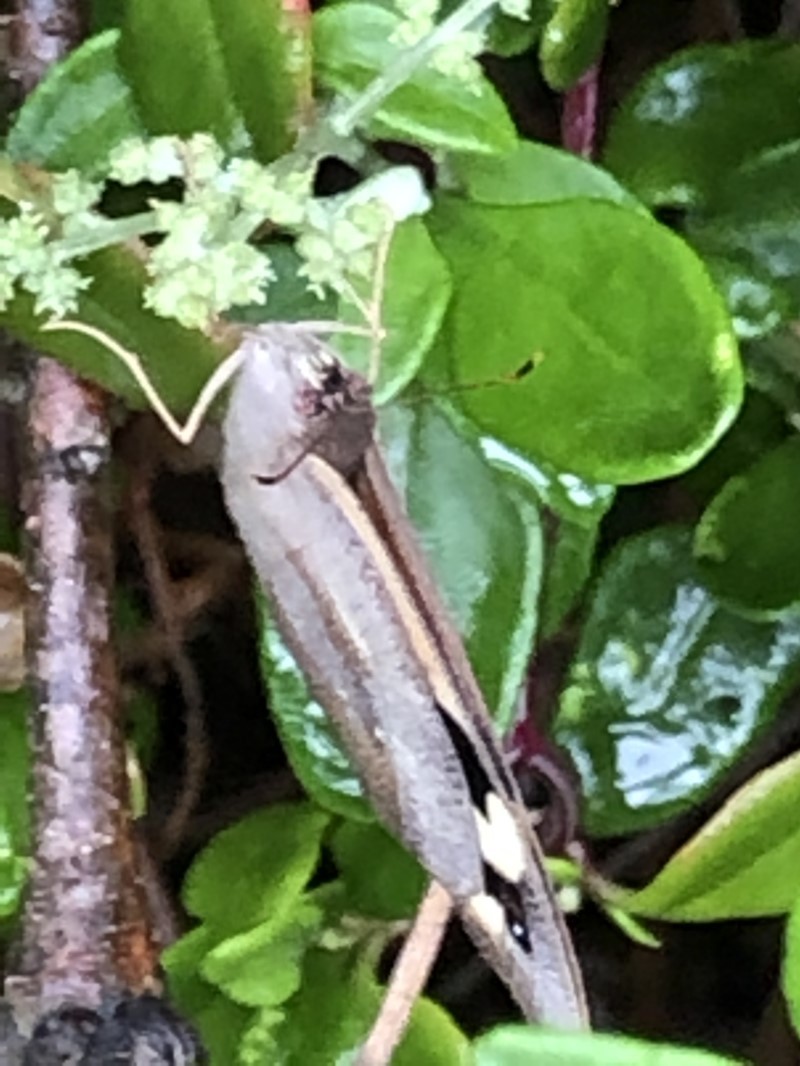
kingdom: Animalia
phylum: Arthropoda
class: Insecta
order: Lepidoptera
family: Nymphalidae
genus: Heteronympha
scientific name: Heteronympha merope
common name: Common brown
